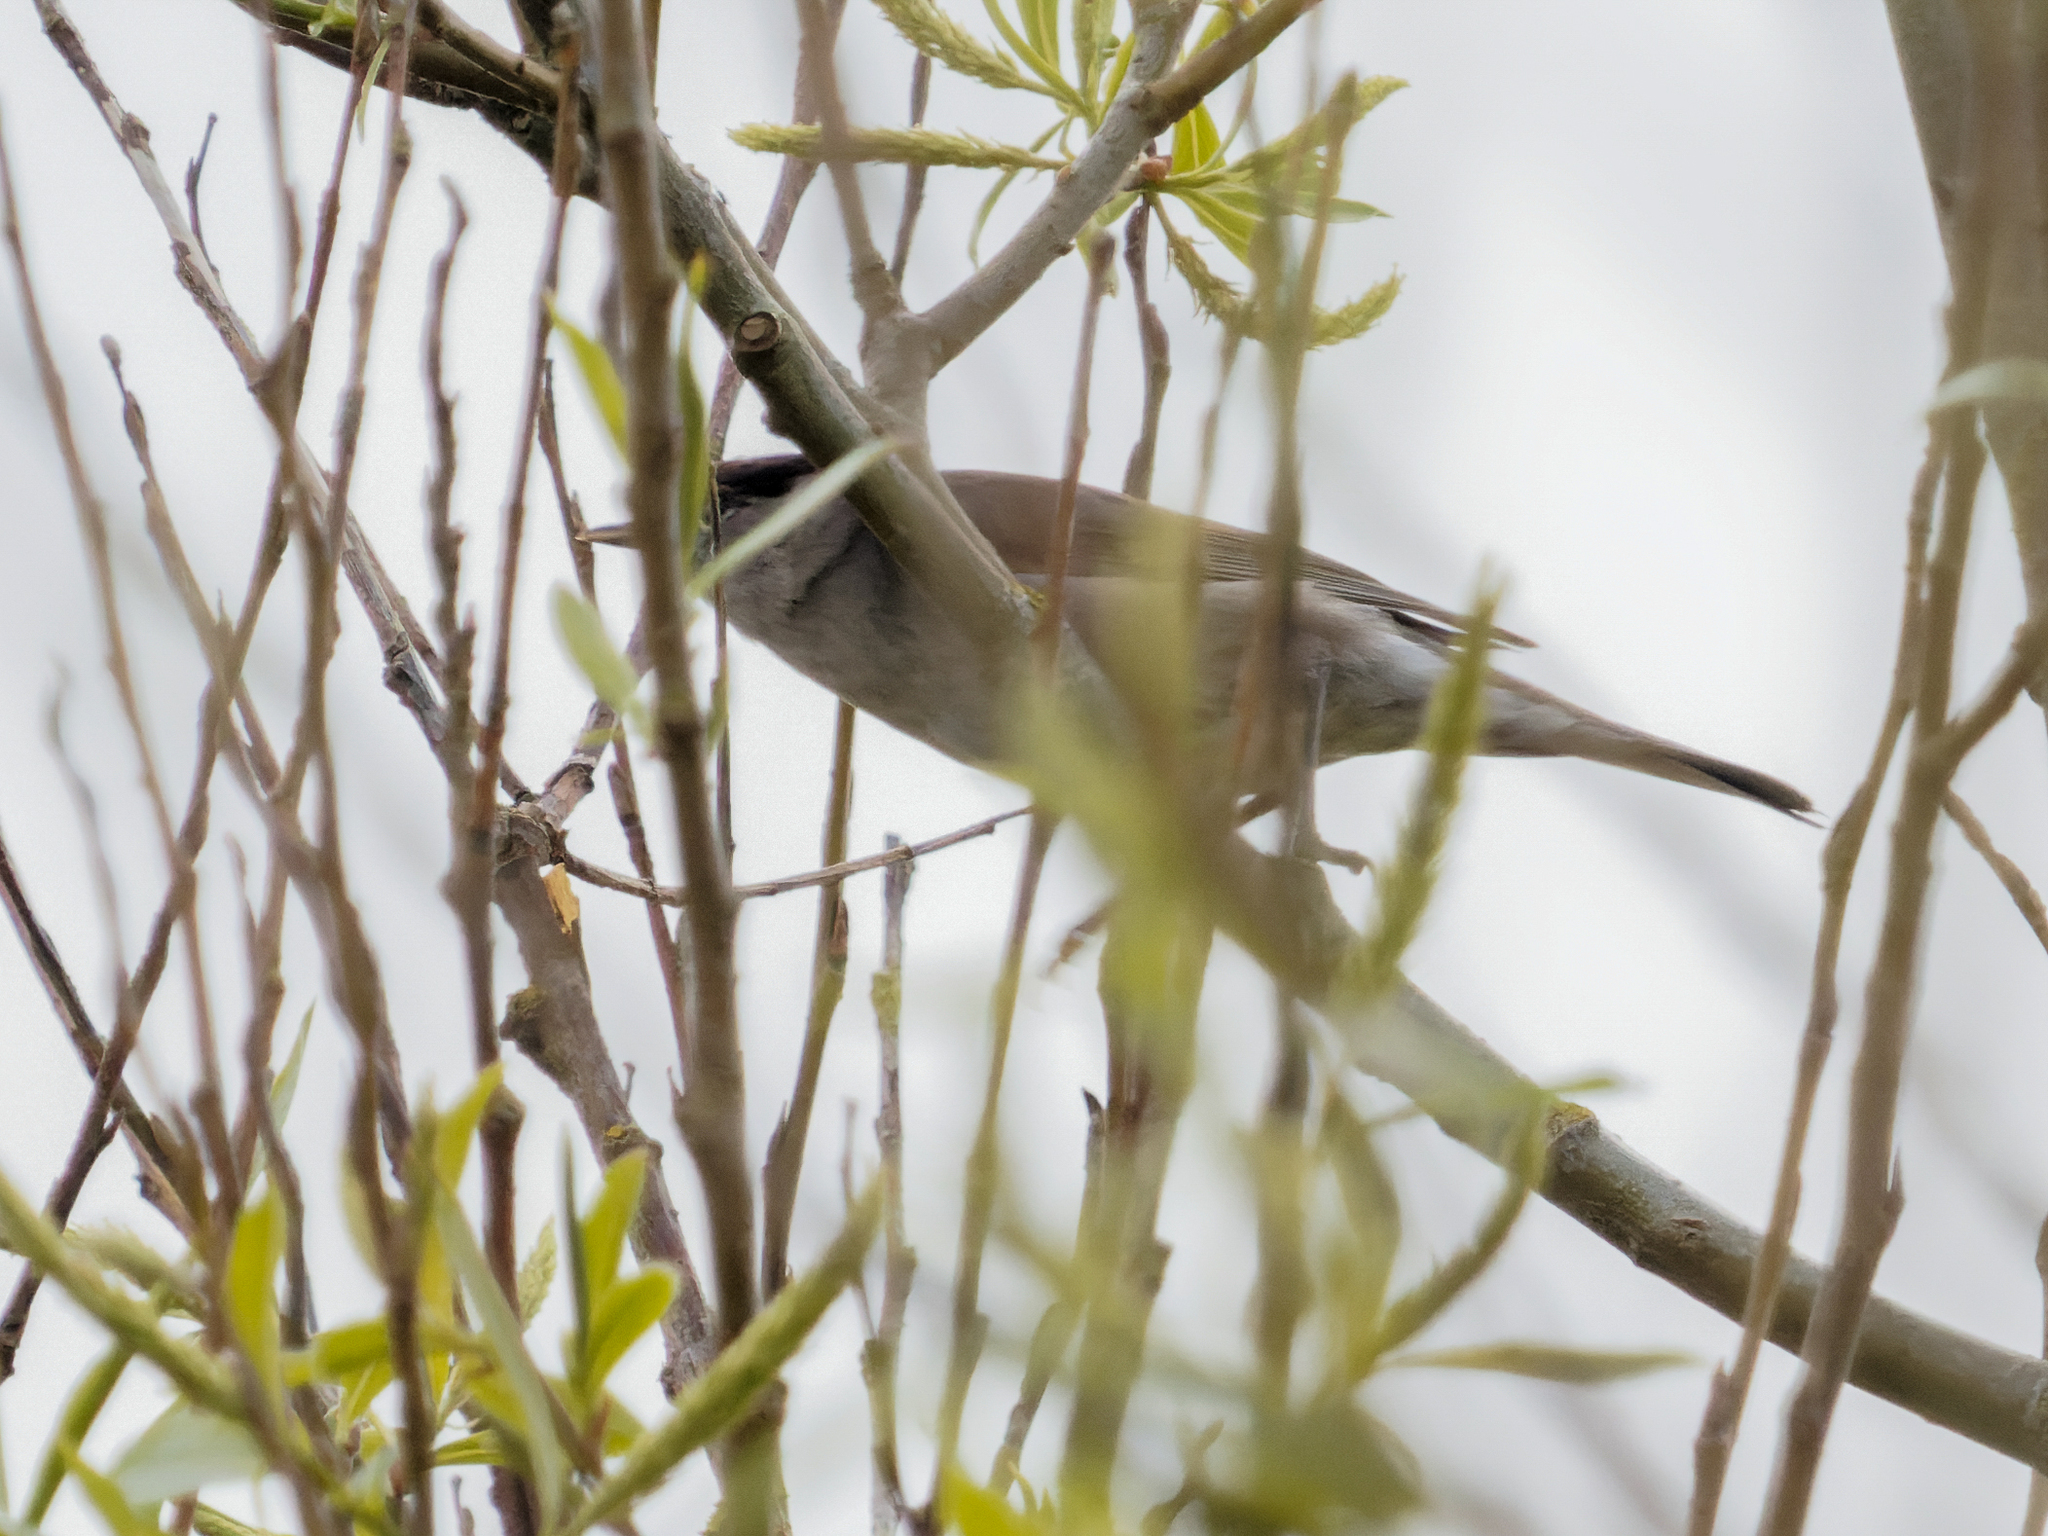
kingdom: Animalia
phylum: Chordata
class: Aves
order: Passeriformes
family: Sylviidae
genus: Sylvia
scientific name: Sylvia atricapilla
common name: Eurasian blackcap
